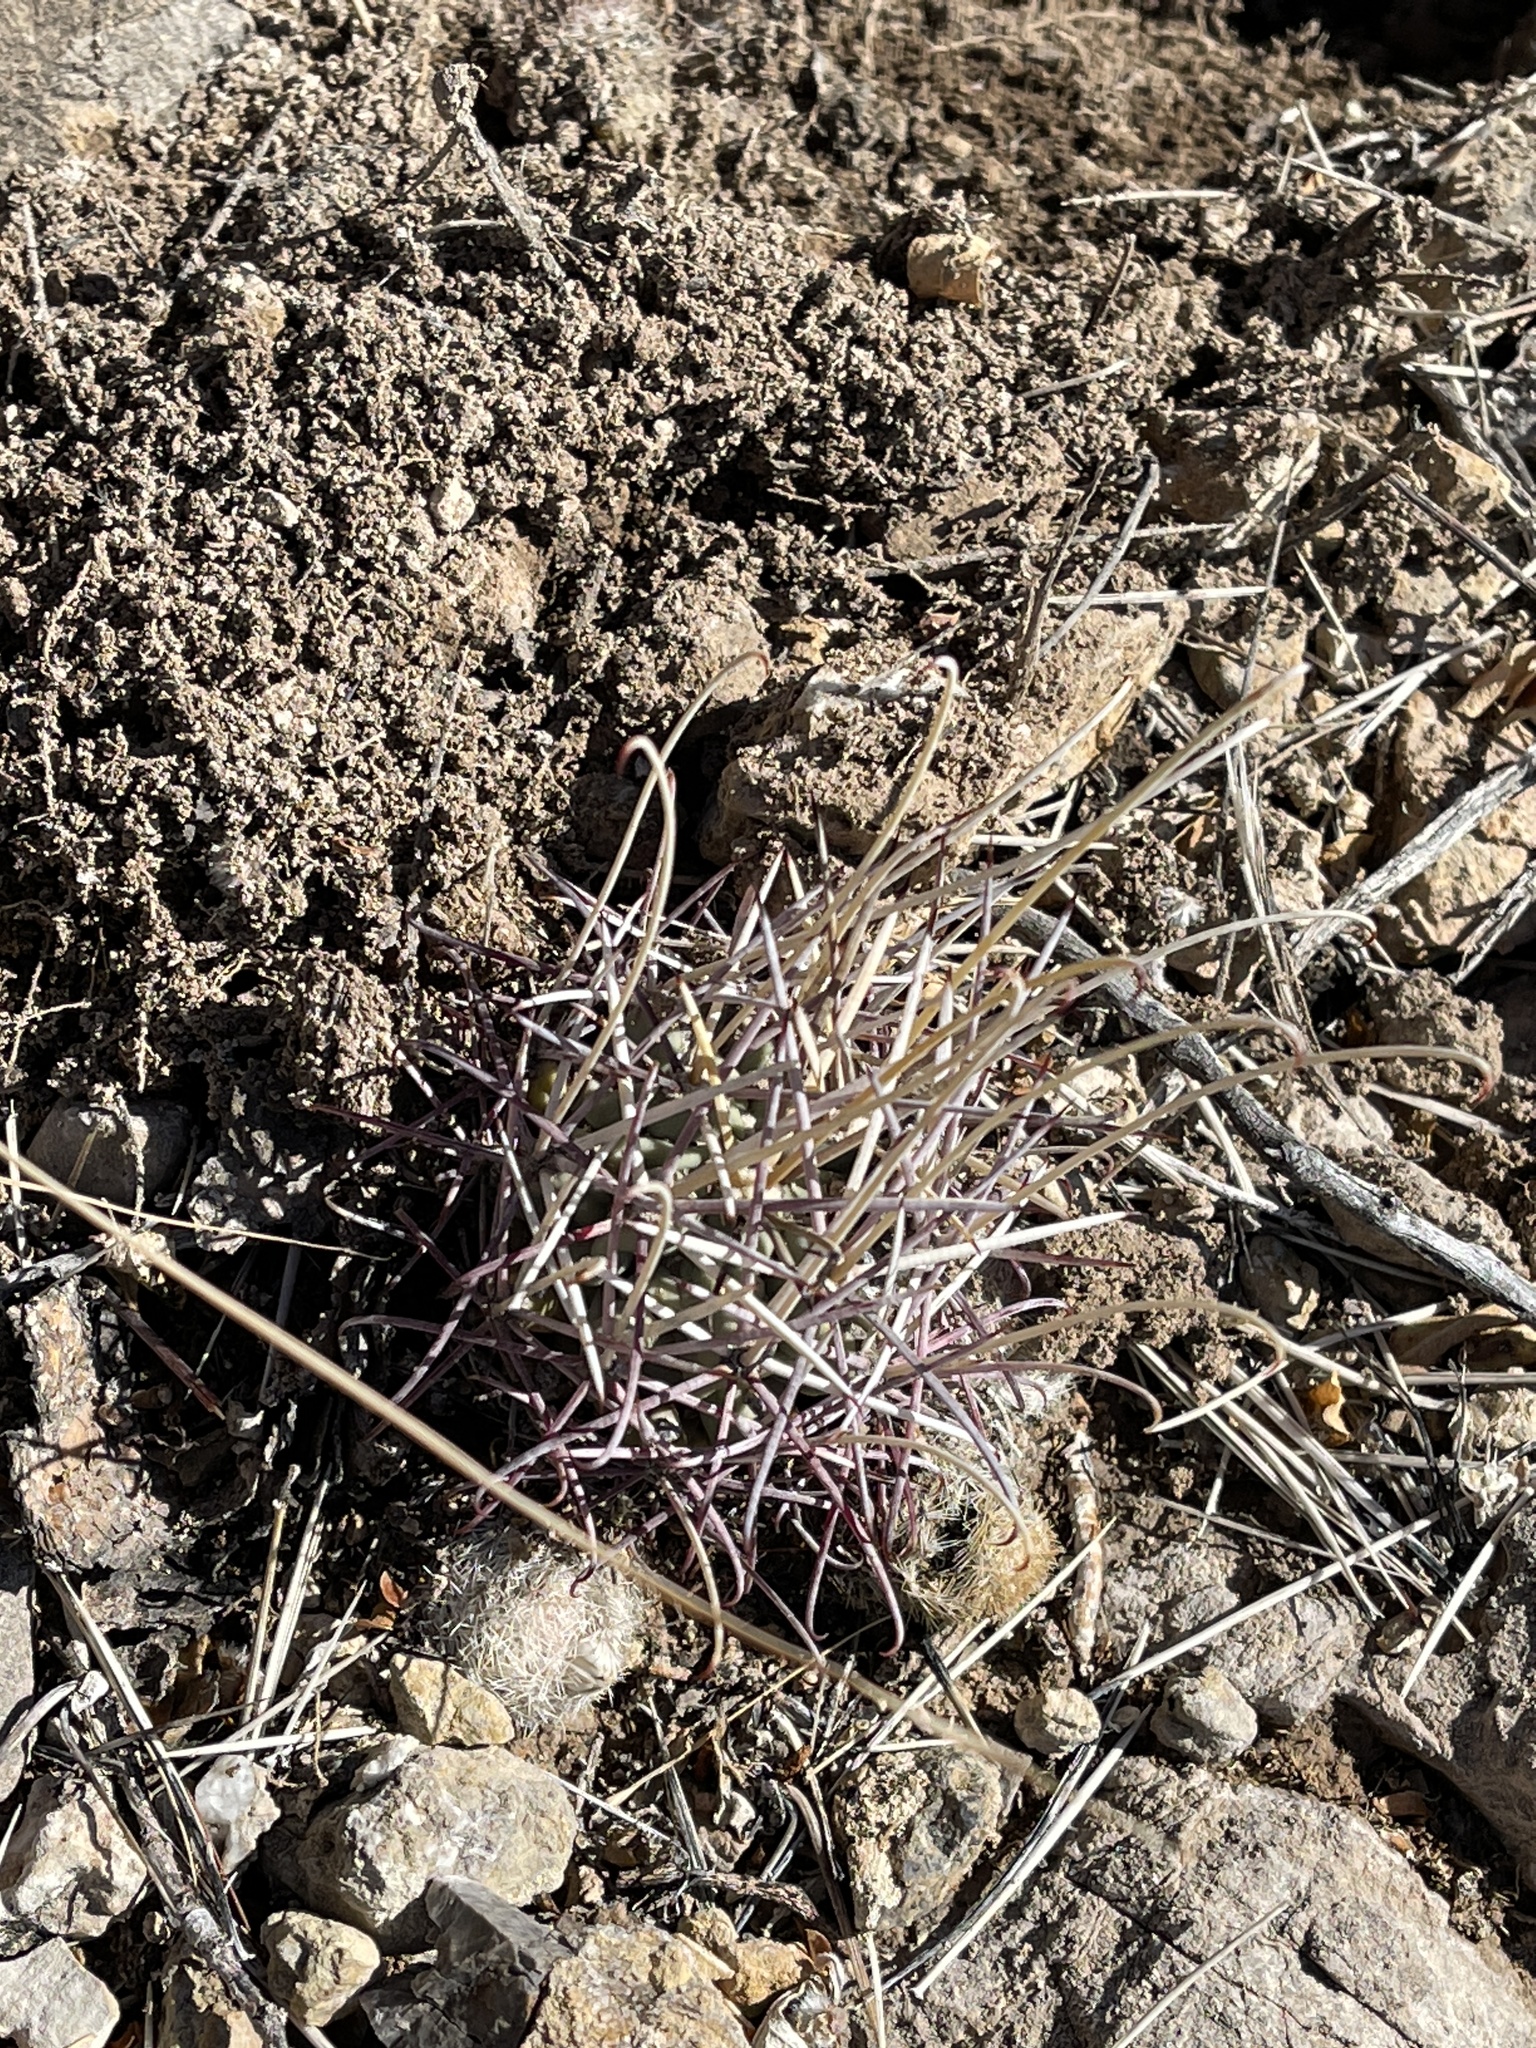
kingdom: Plantae
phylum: Tracheophyta
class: Magnoliopsida
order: Caryophyllales
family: Cactaceae
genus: Ferocactus
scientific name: Ferocactus uncinatus
